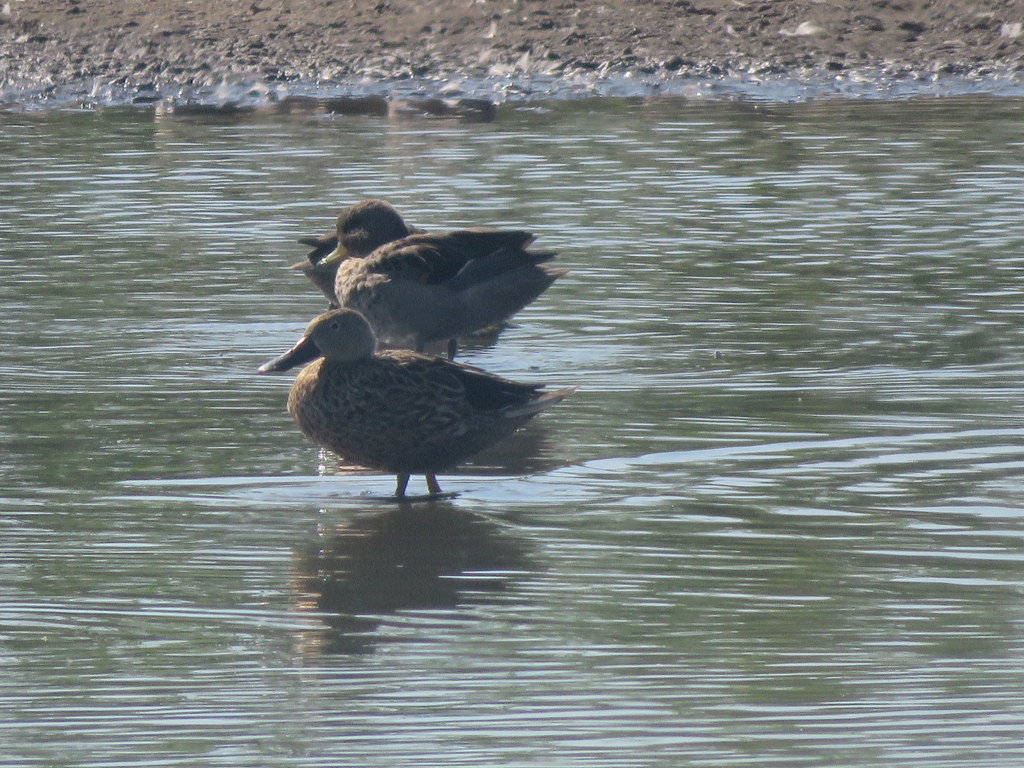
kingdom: Animalia
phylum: Chordata
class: Aves
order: Anseriformes
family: Anatidae
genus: Spatula
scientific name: Spatula platalea
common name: Red shoveler
